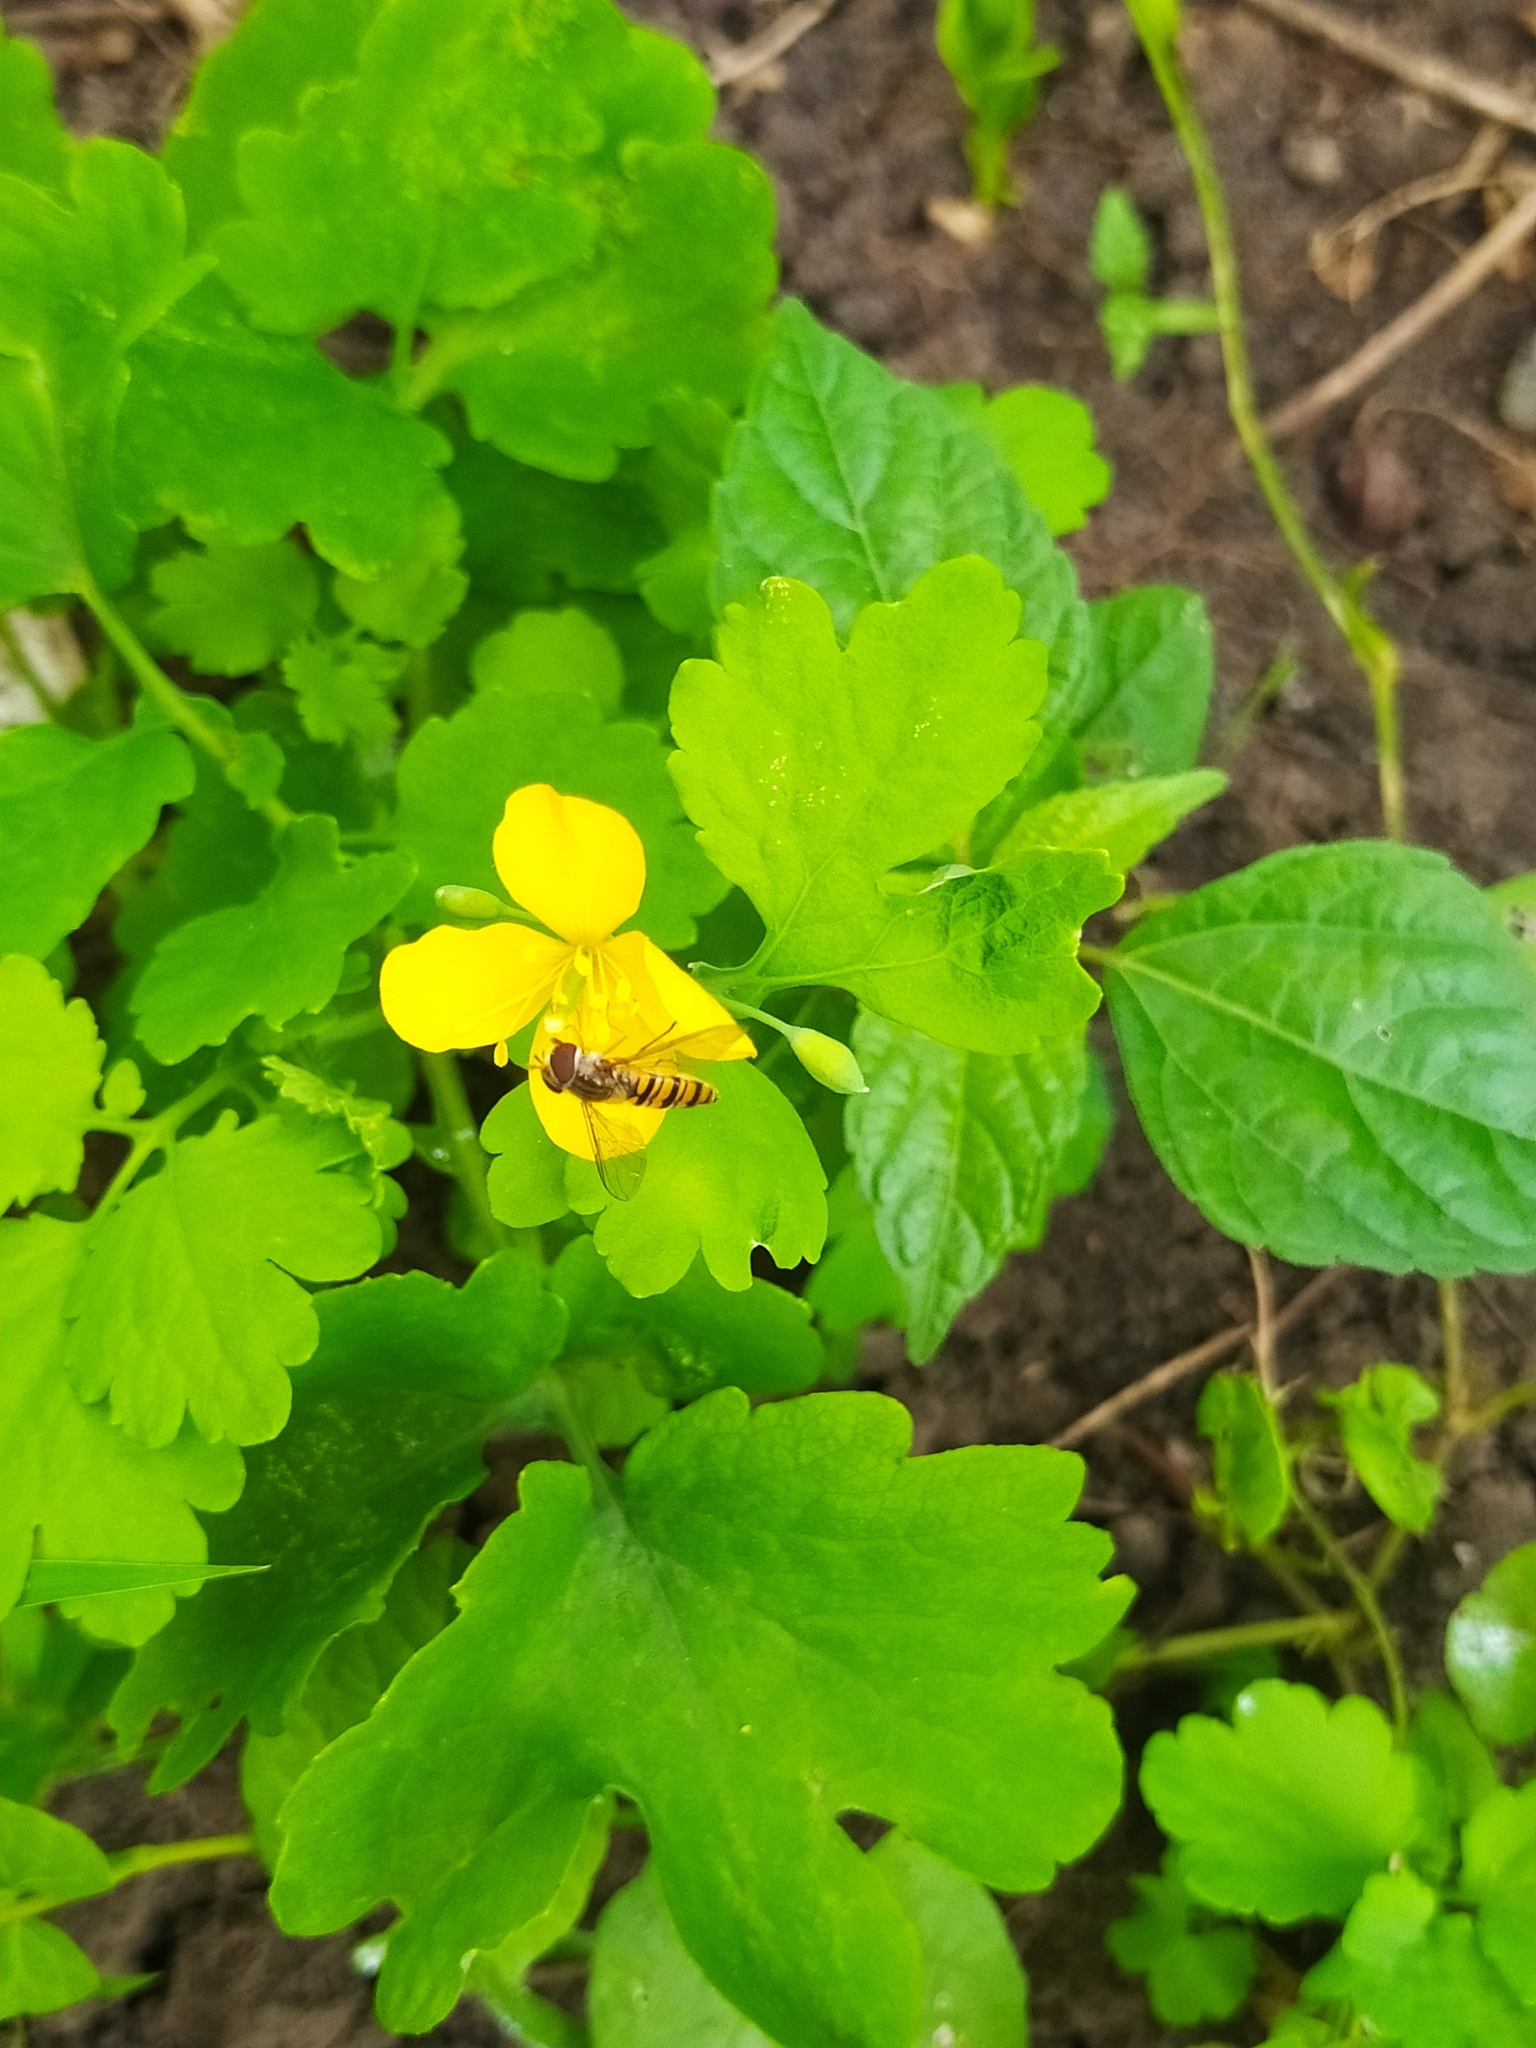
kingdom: Animalia
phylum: Arthropoda
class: Insecta
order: Diptera
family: Syrphidae
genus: Episyrphus
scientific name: Episyrphus balteatus
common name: Marmalade hoverfly
